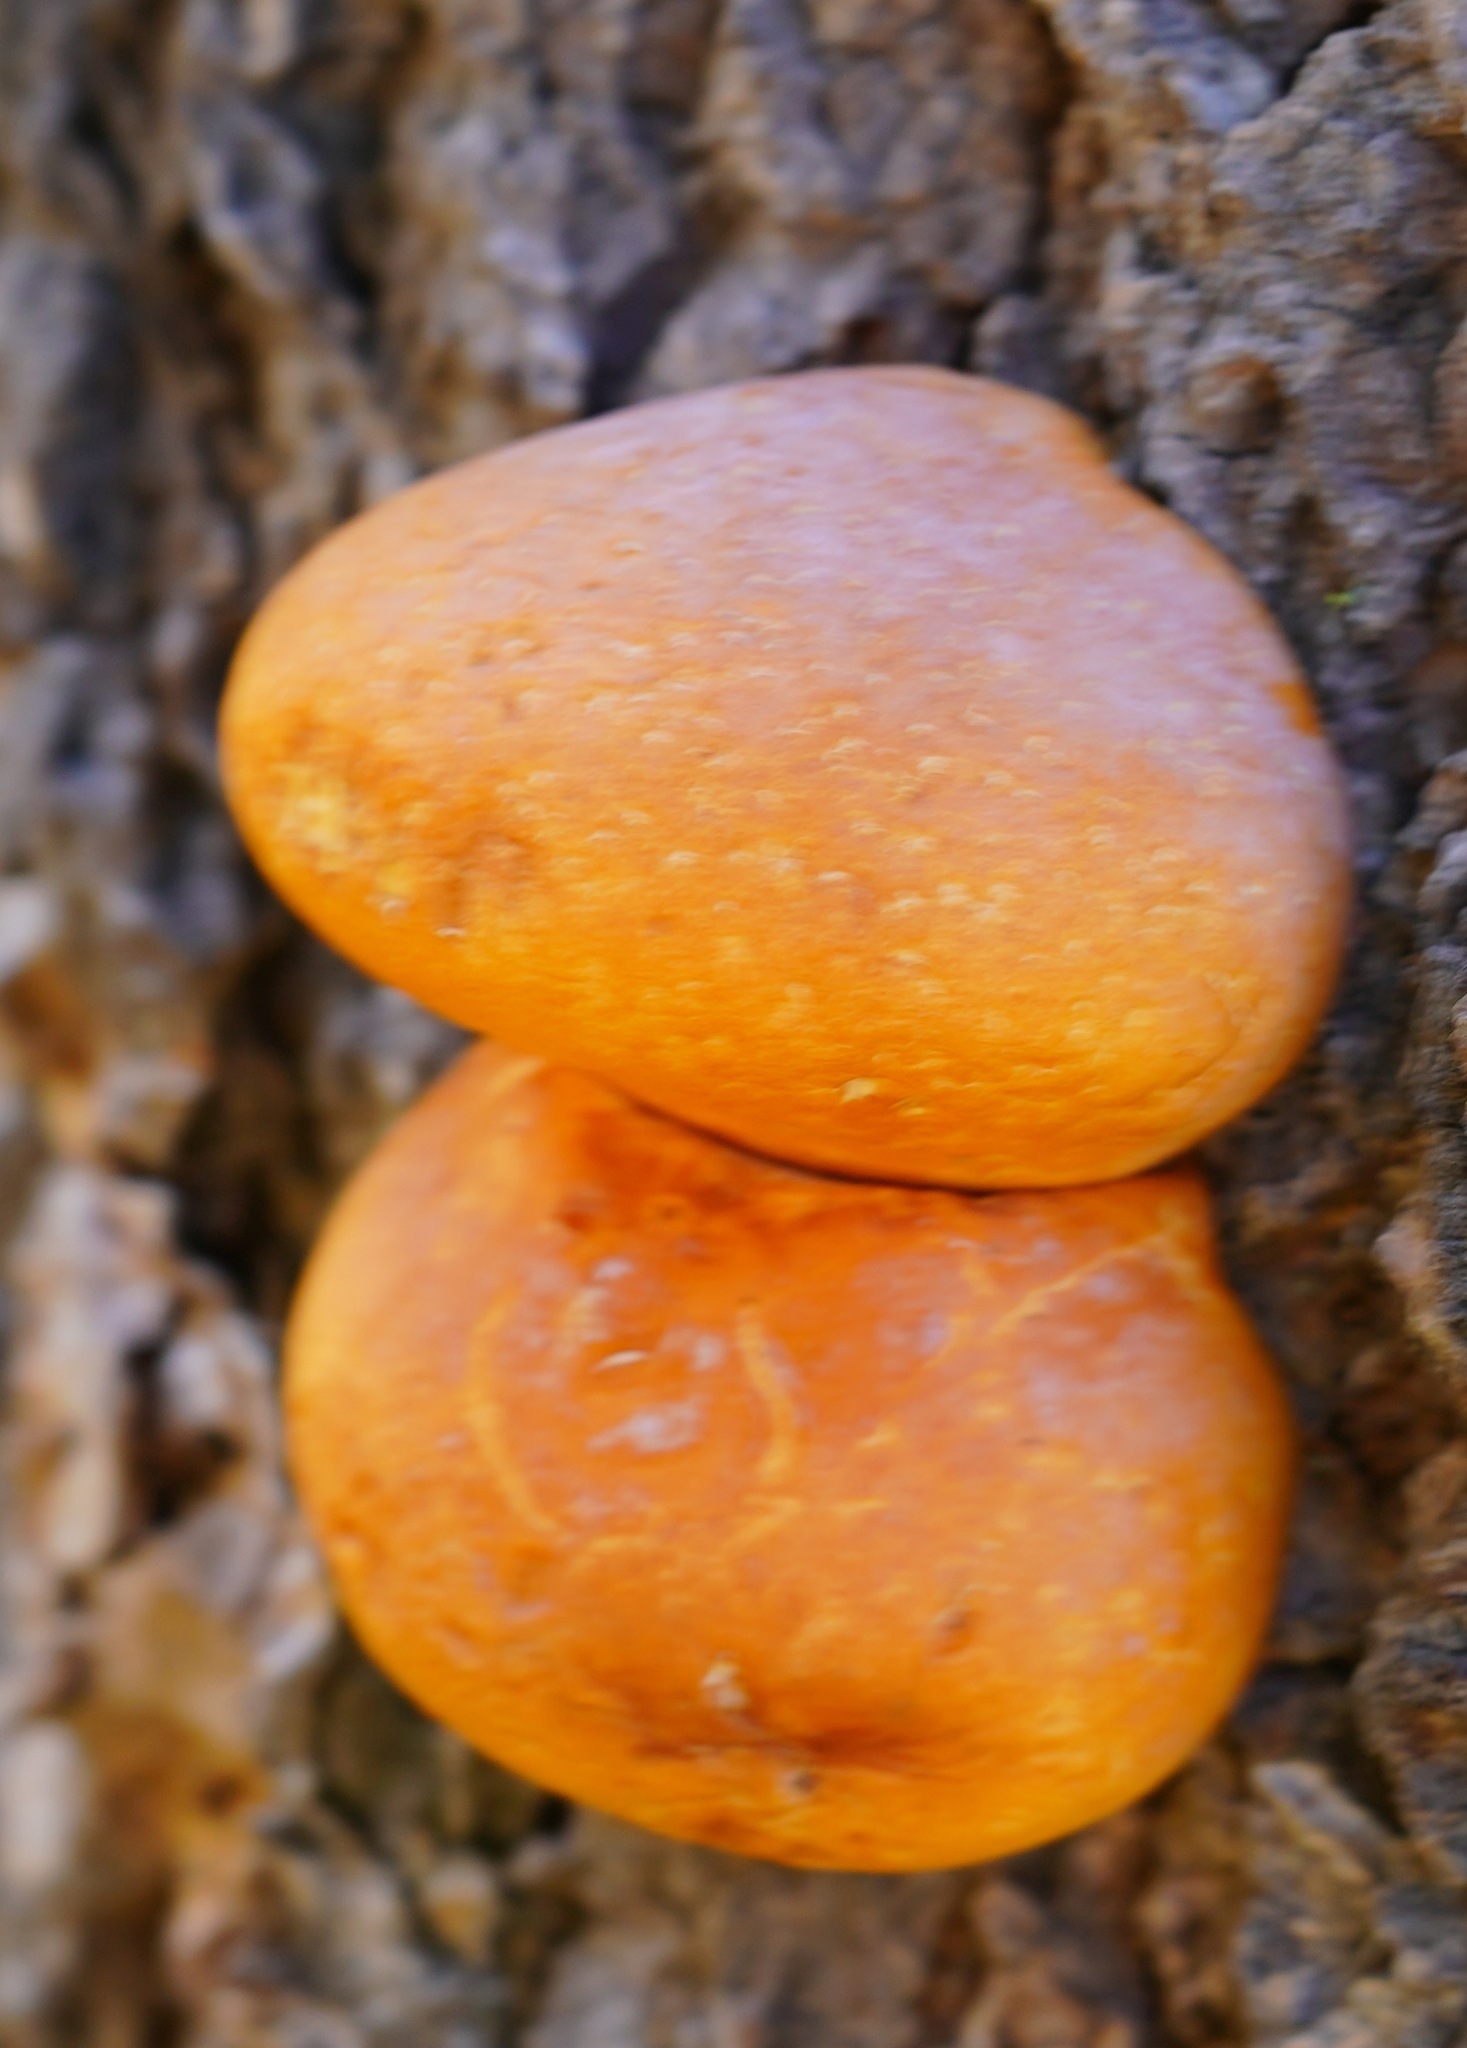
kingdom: Fungi
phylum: Basidiomycota
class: Agaricomycetes
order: Polyporales
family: Polyporaceae
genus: Cryptoporus
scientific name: Cryptoporus volvatus
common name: Veiled polypore
